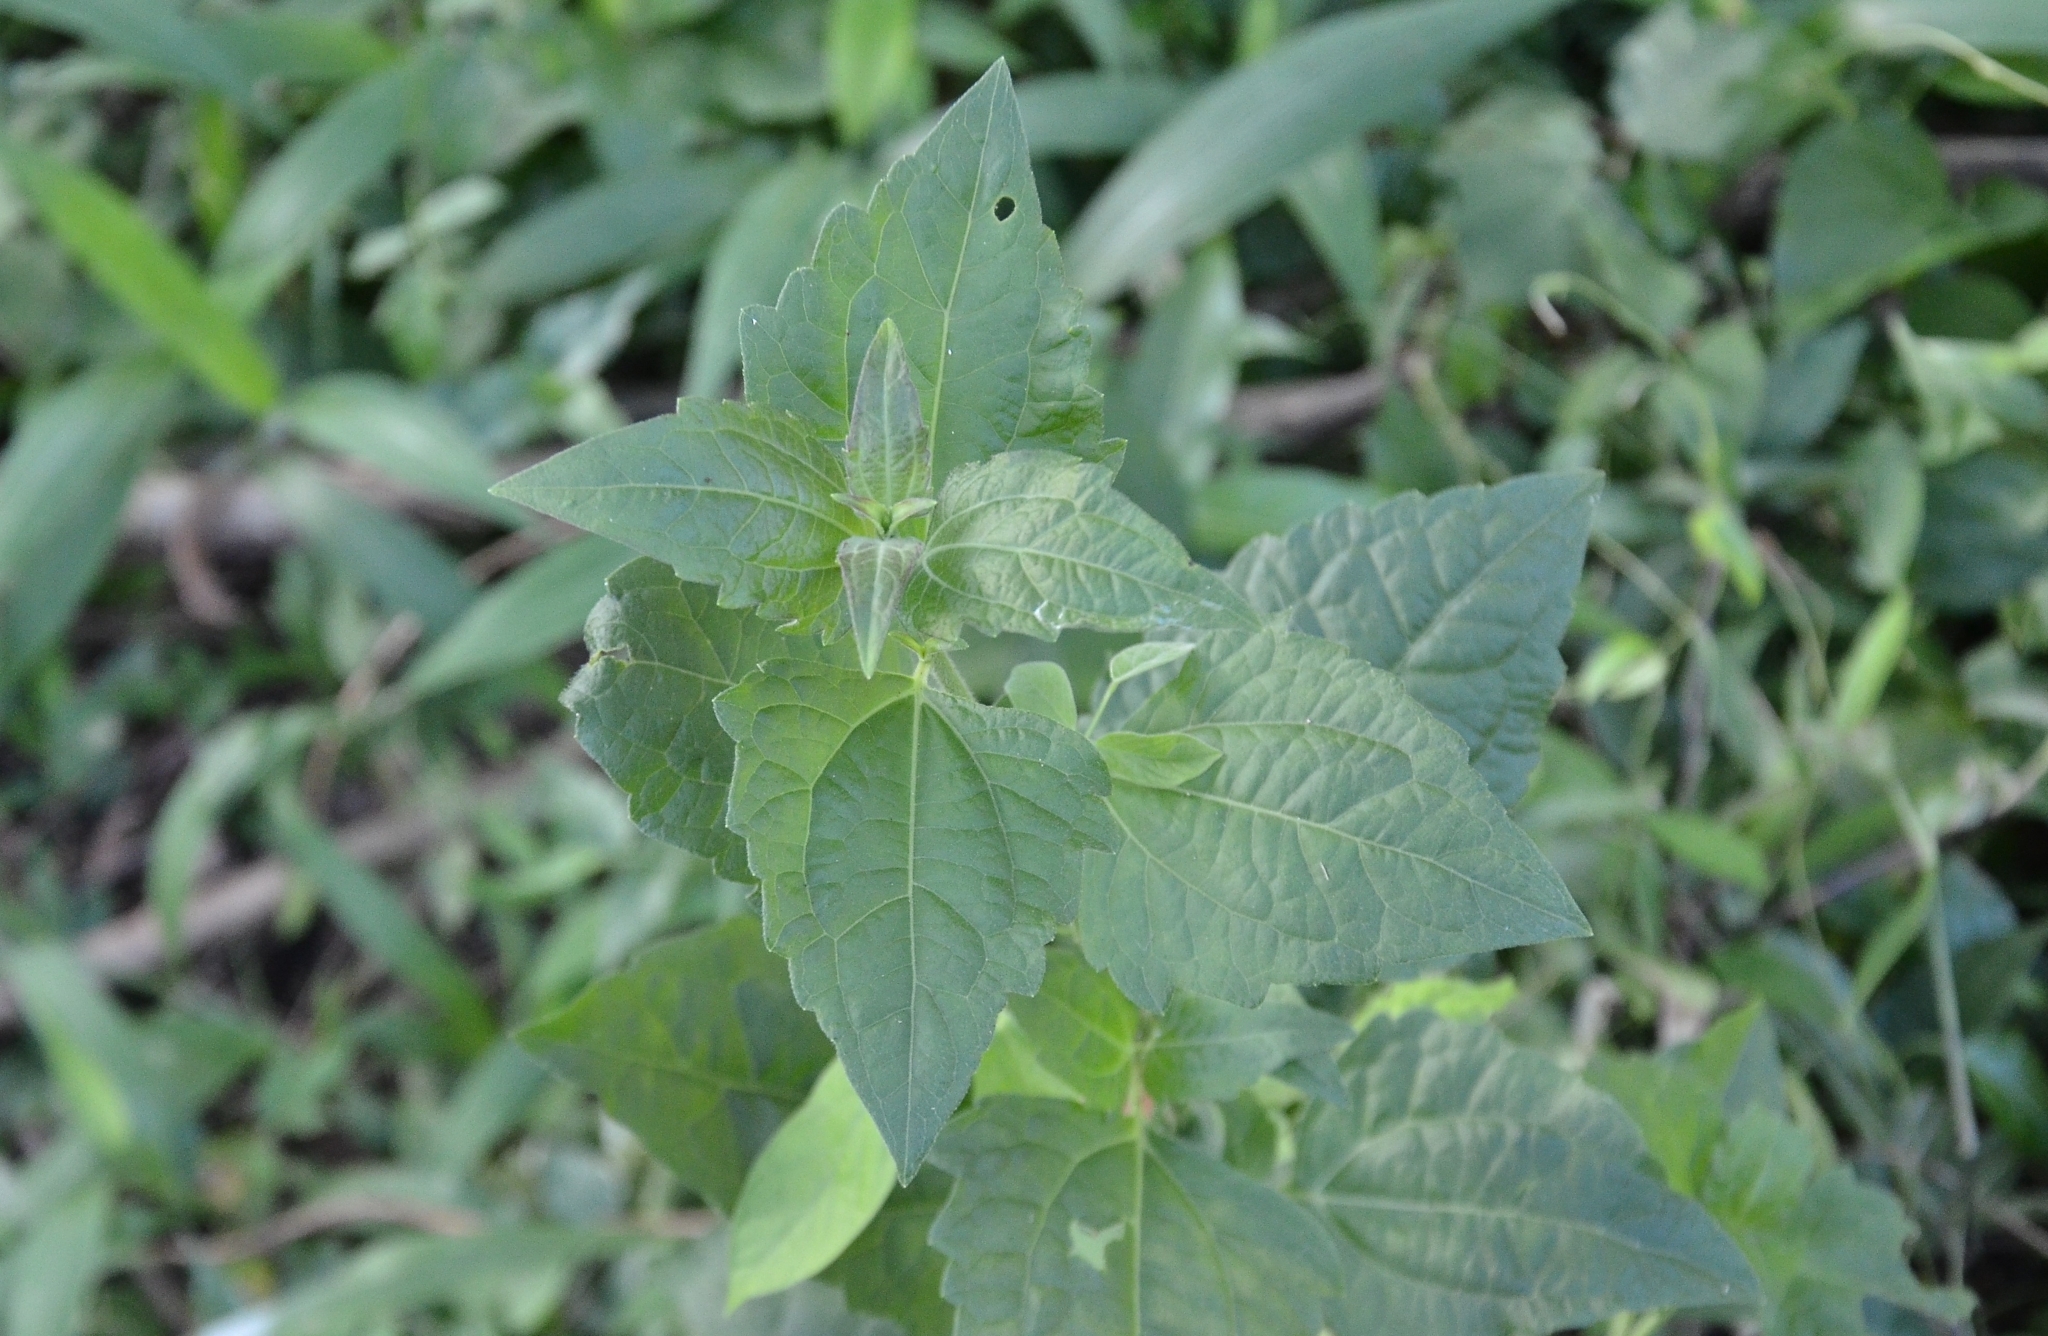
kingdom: Plantae
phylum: Tracheophyta
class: Magnoliopsida
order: Asterales
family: Asteraceae
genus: Chromolaena
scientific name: Chromolaena odorata
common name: Siamweed
